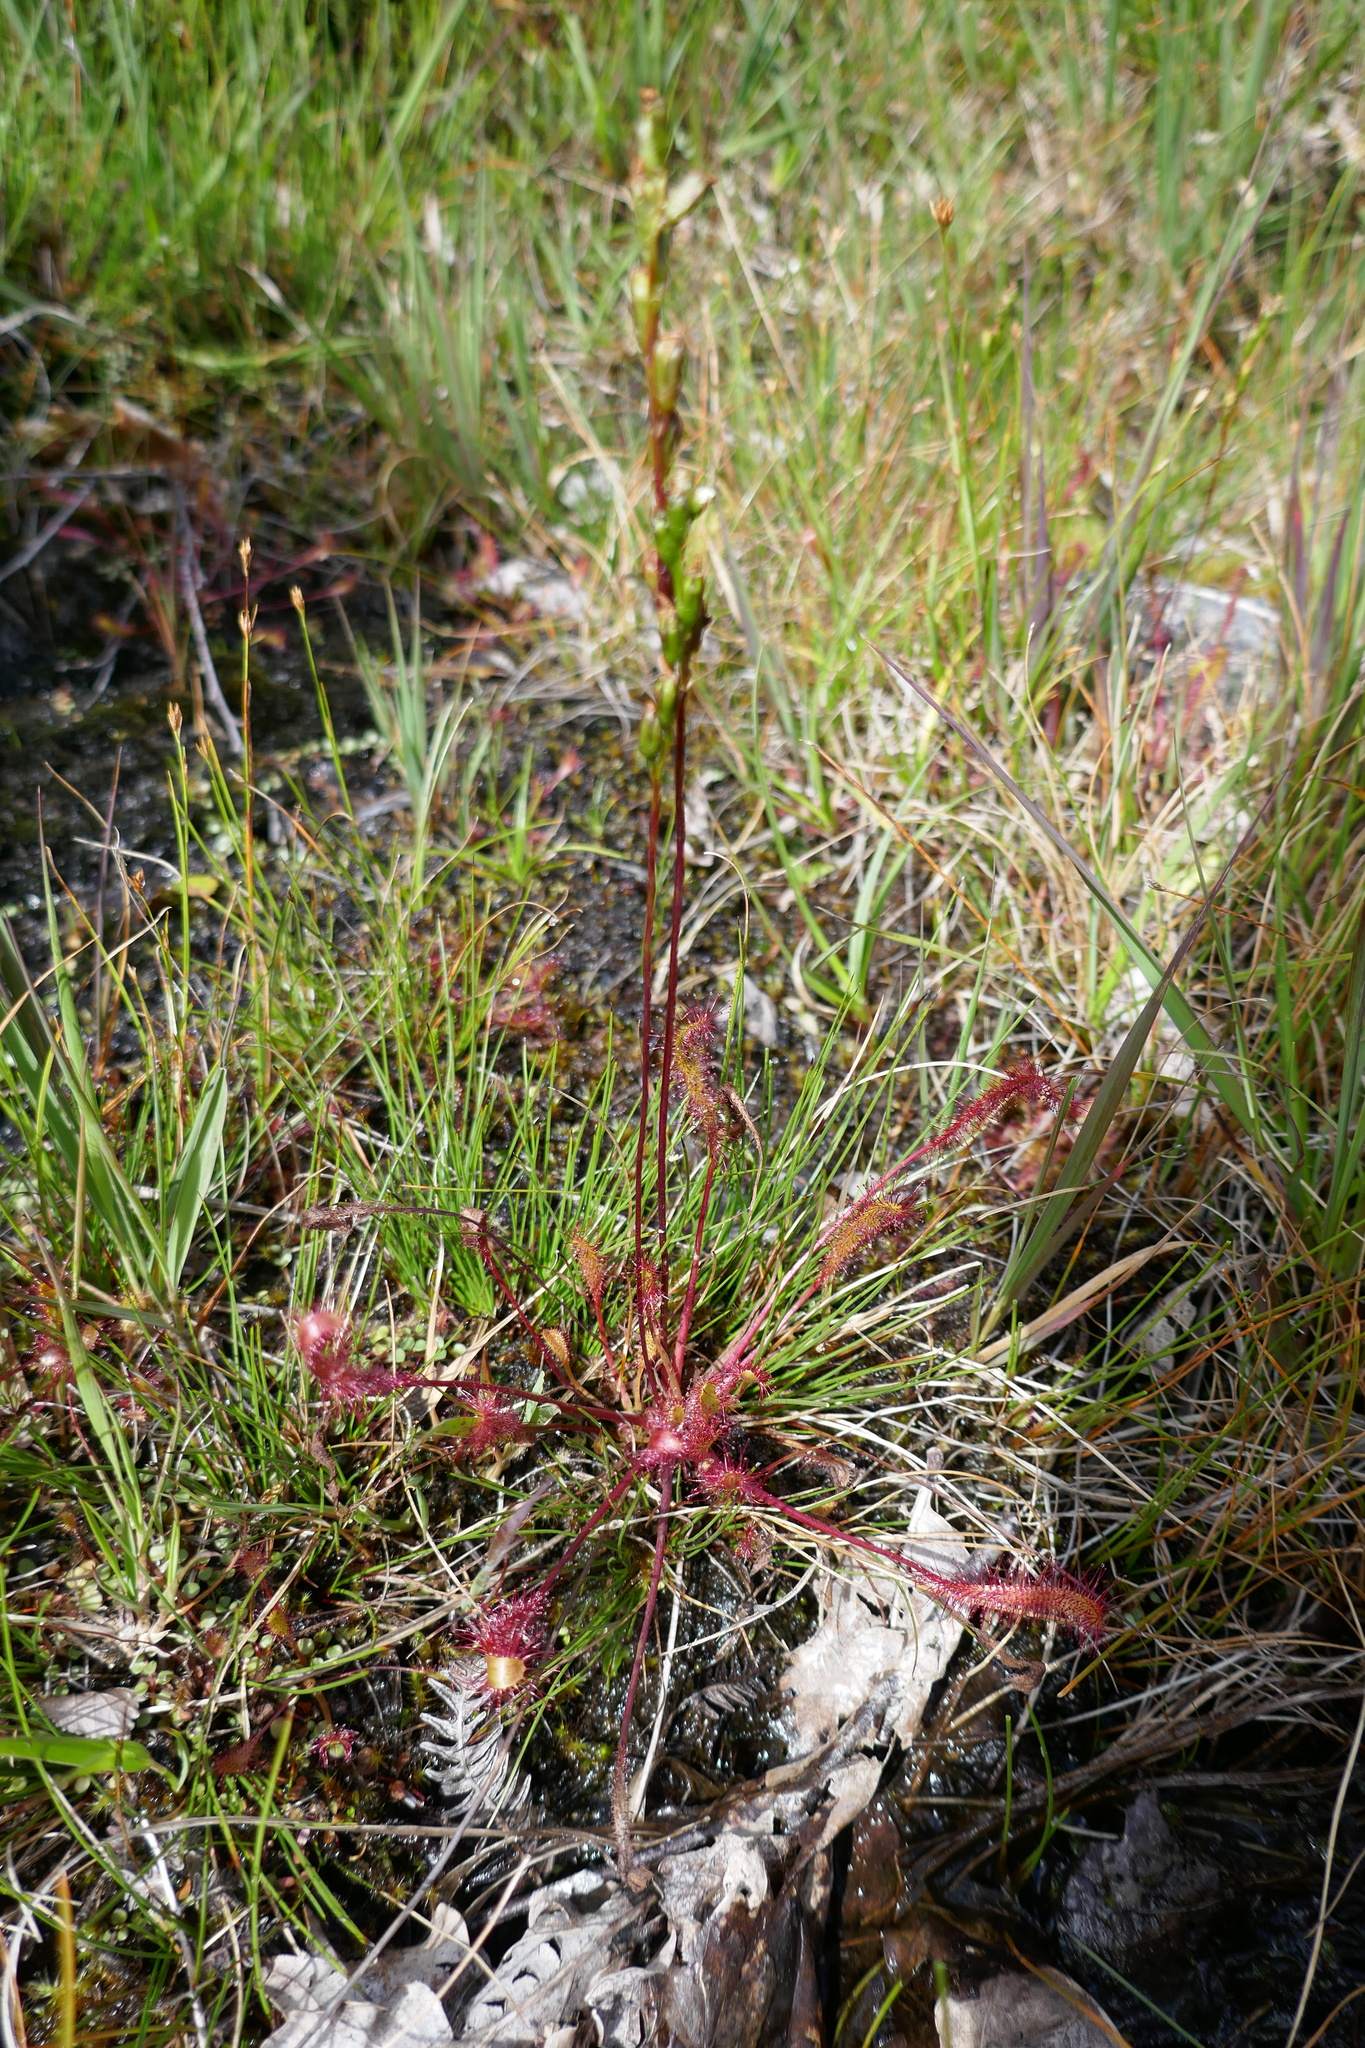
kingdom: Plantae
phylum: Tracheophyta
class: Magnoliopsida
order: Caryophyllales
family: Droseraceae
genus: Drosera
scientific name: Drosera anglica
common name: Great sundew
